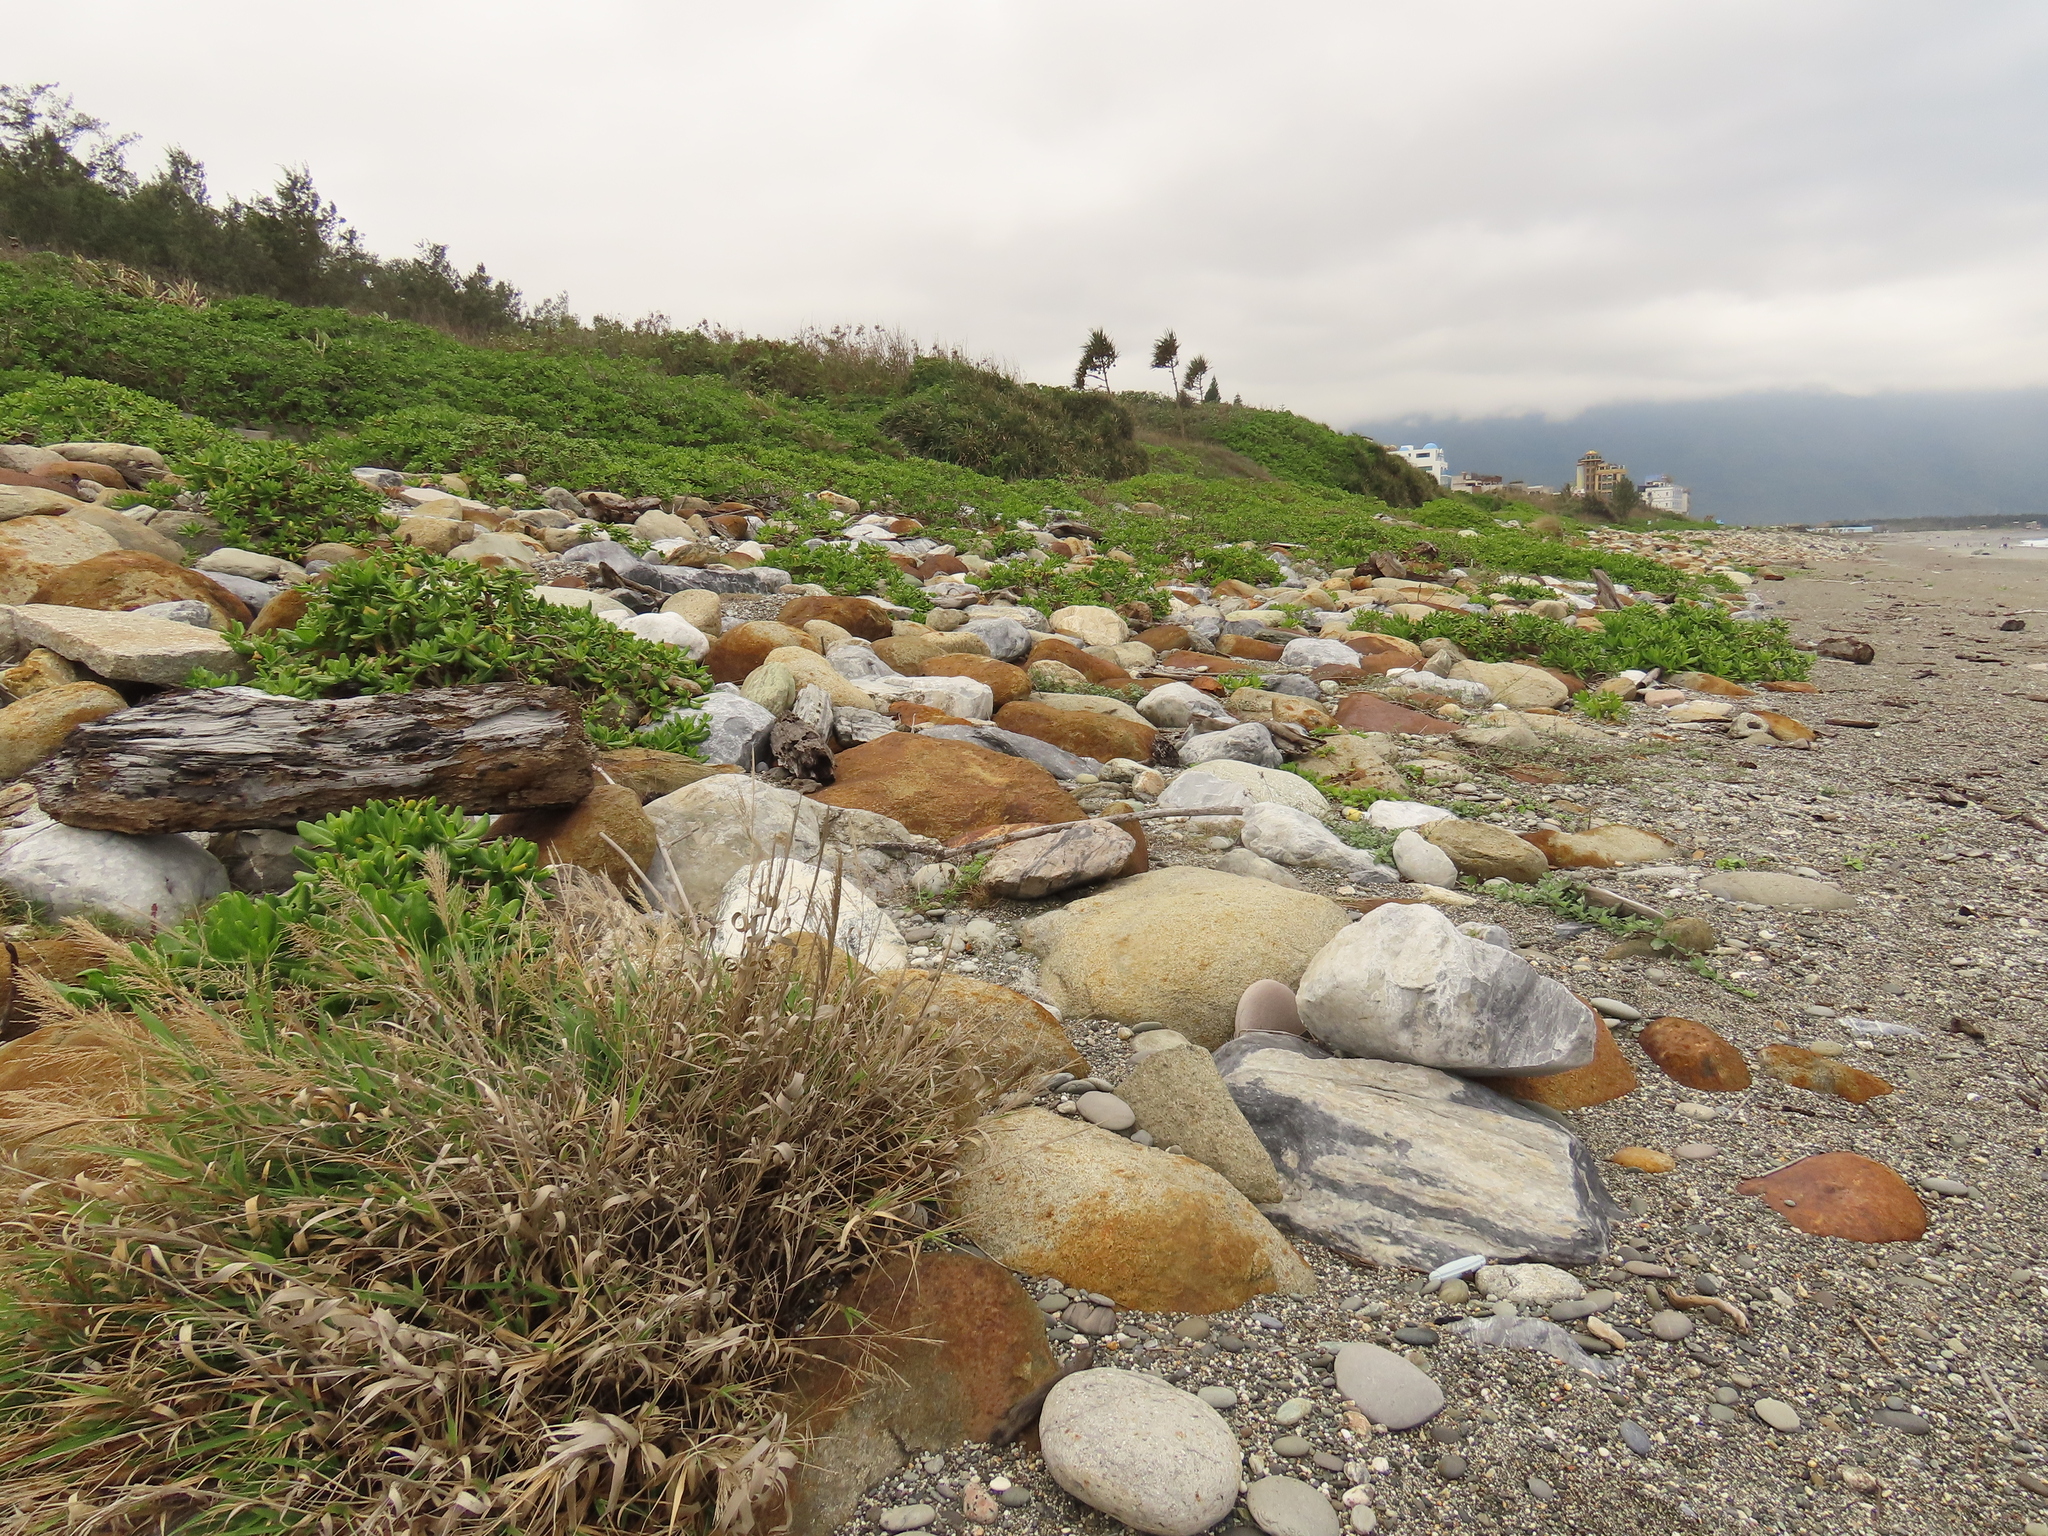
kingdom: Plantae
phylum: Tracheophyta
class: Liliopsida
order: Poales
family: Poaceae
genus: Arundo
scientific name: Arundo formosana
